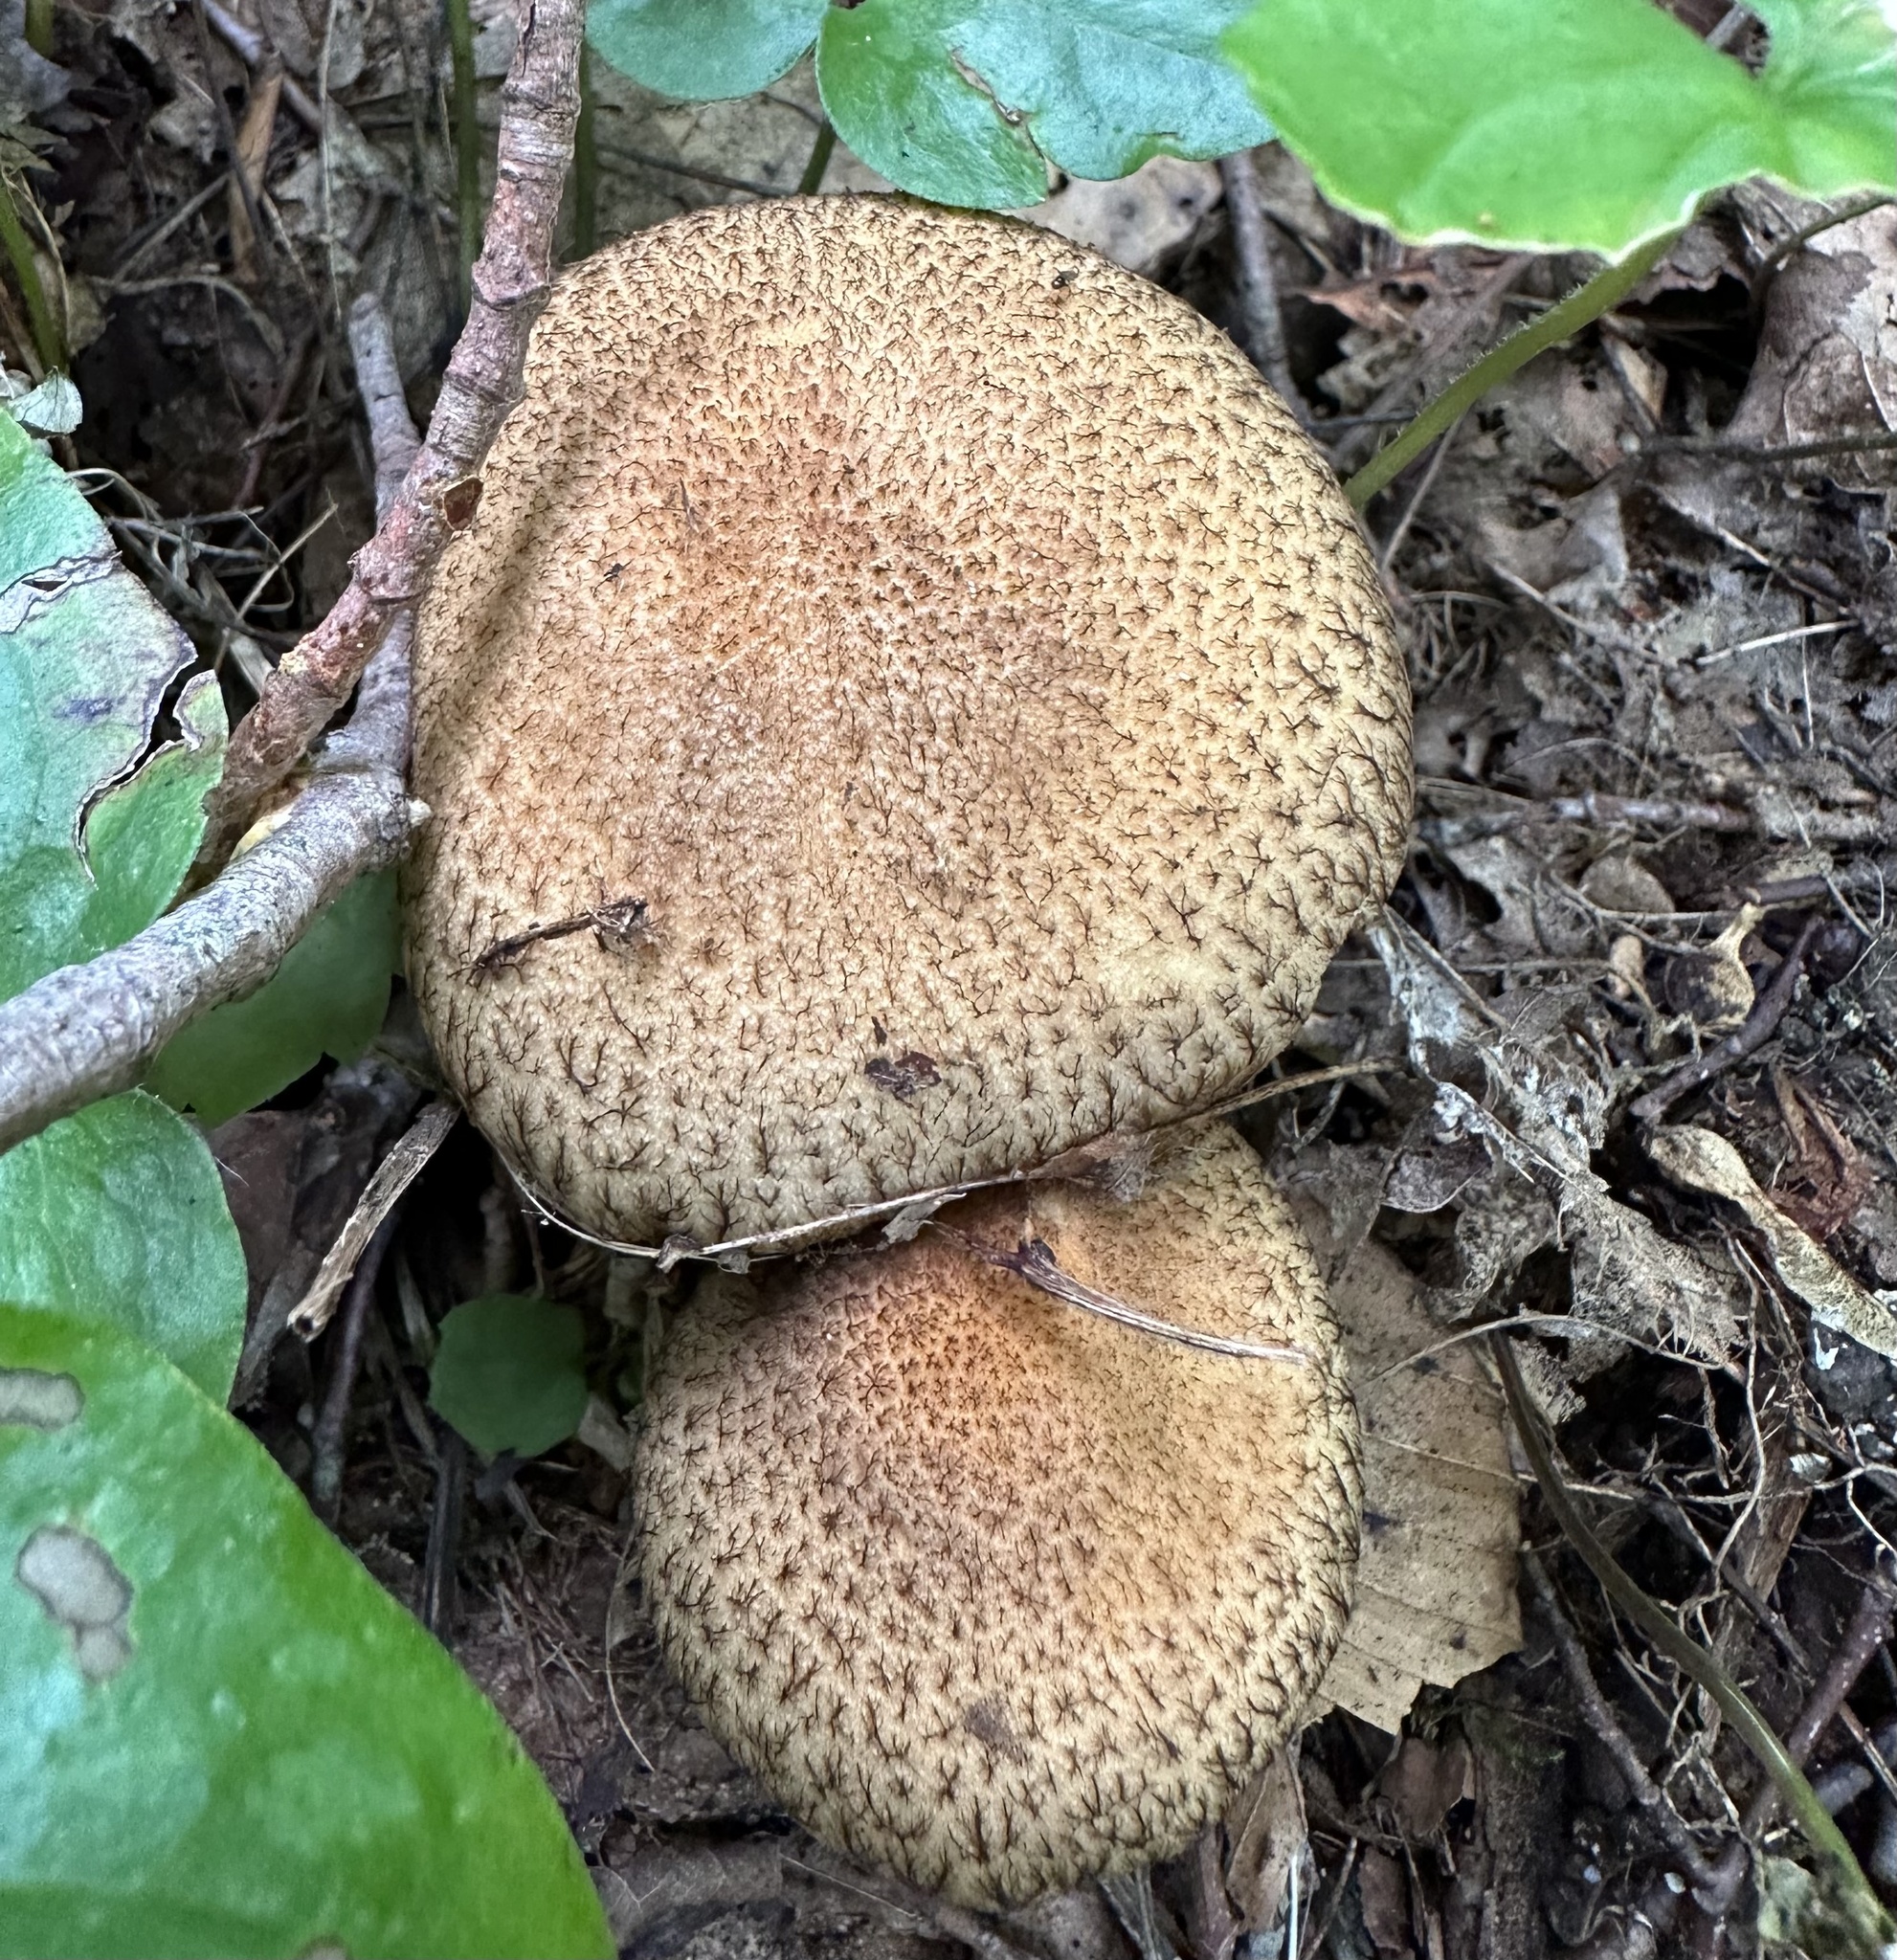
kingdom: Fungi
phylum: Basidiomycota
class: Agaricomycetes
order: Agaricales
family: Psathyrellaceae
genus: Lacrymaria
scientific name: Lacrymaria lacrymabunda
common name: Weeping widow
